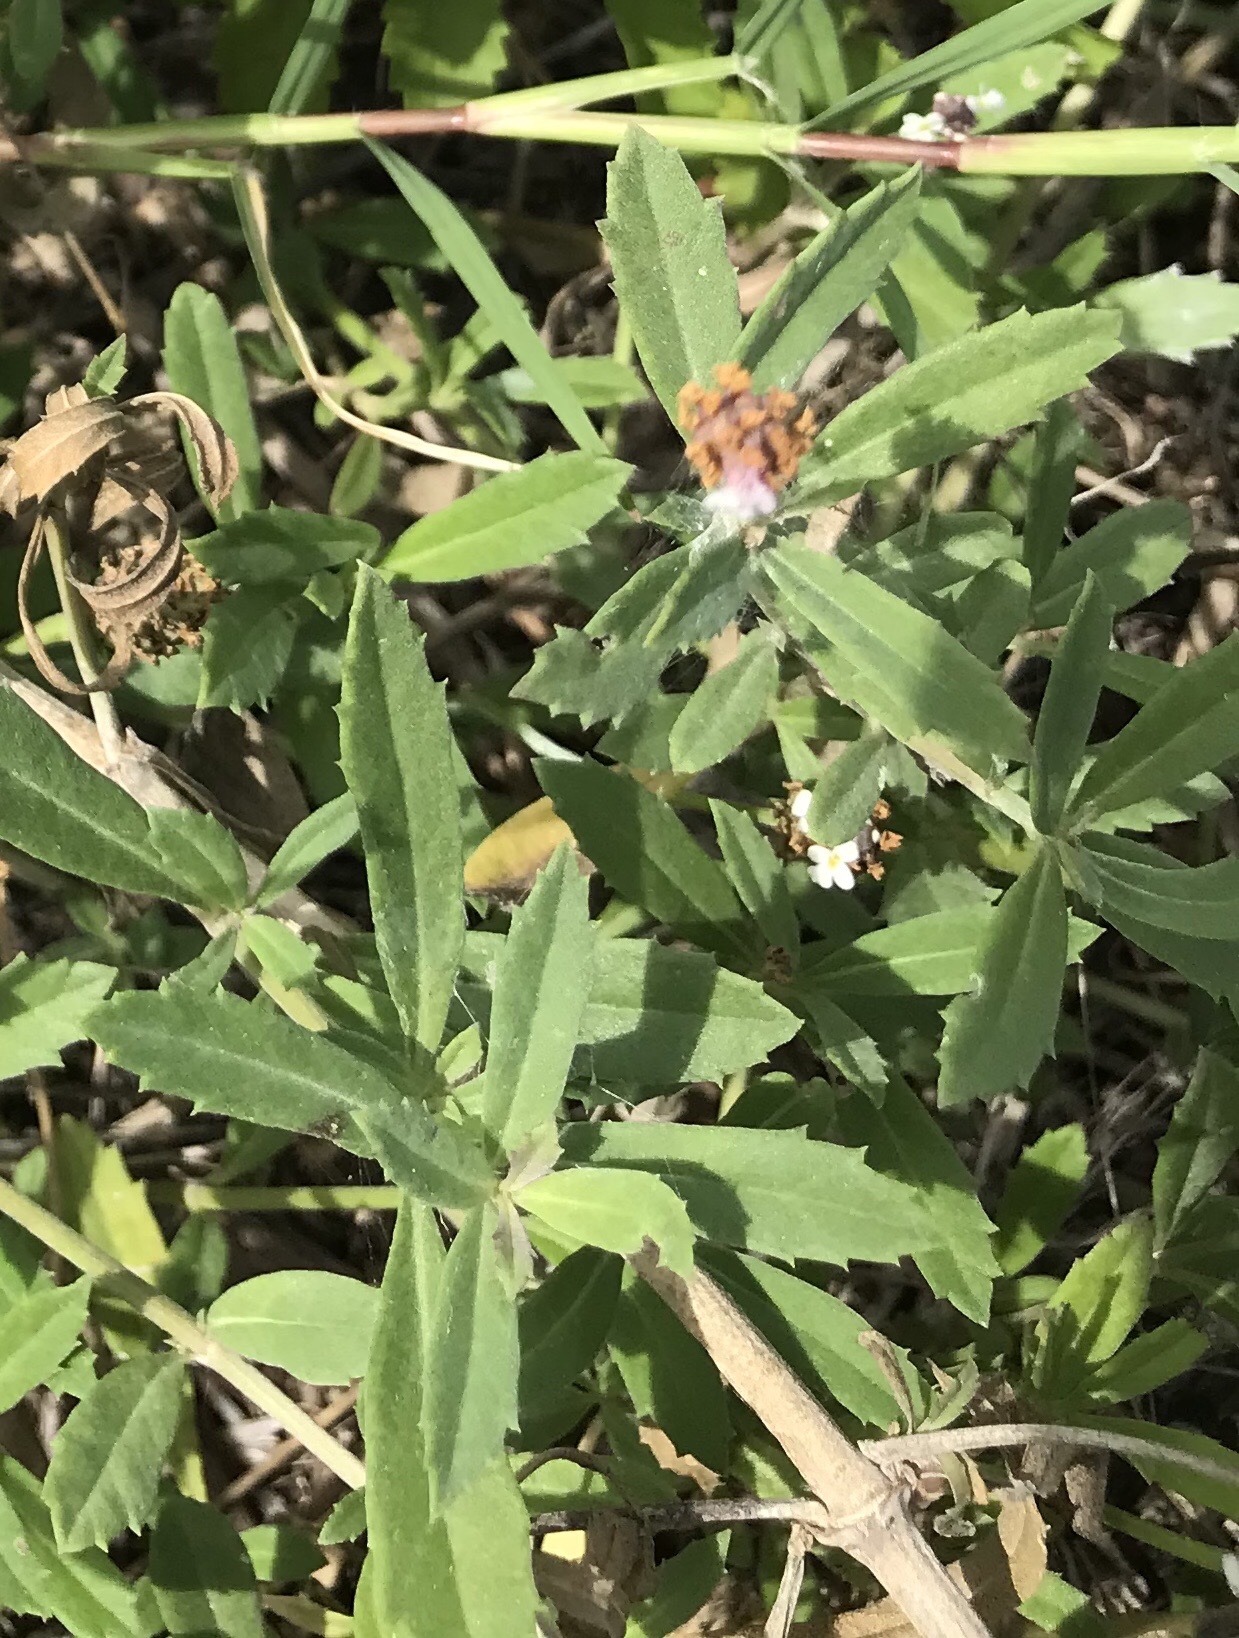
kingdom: Plantae
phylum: Tracheophyta
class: Magnoliopsida
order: Lamiales
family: Verbenaceae
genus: Phyla
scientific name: Phyla nodiflora
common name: Frogfruit
